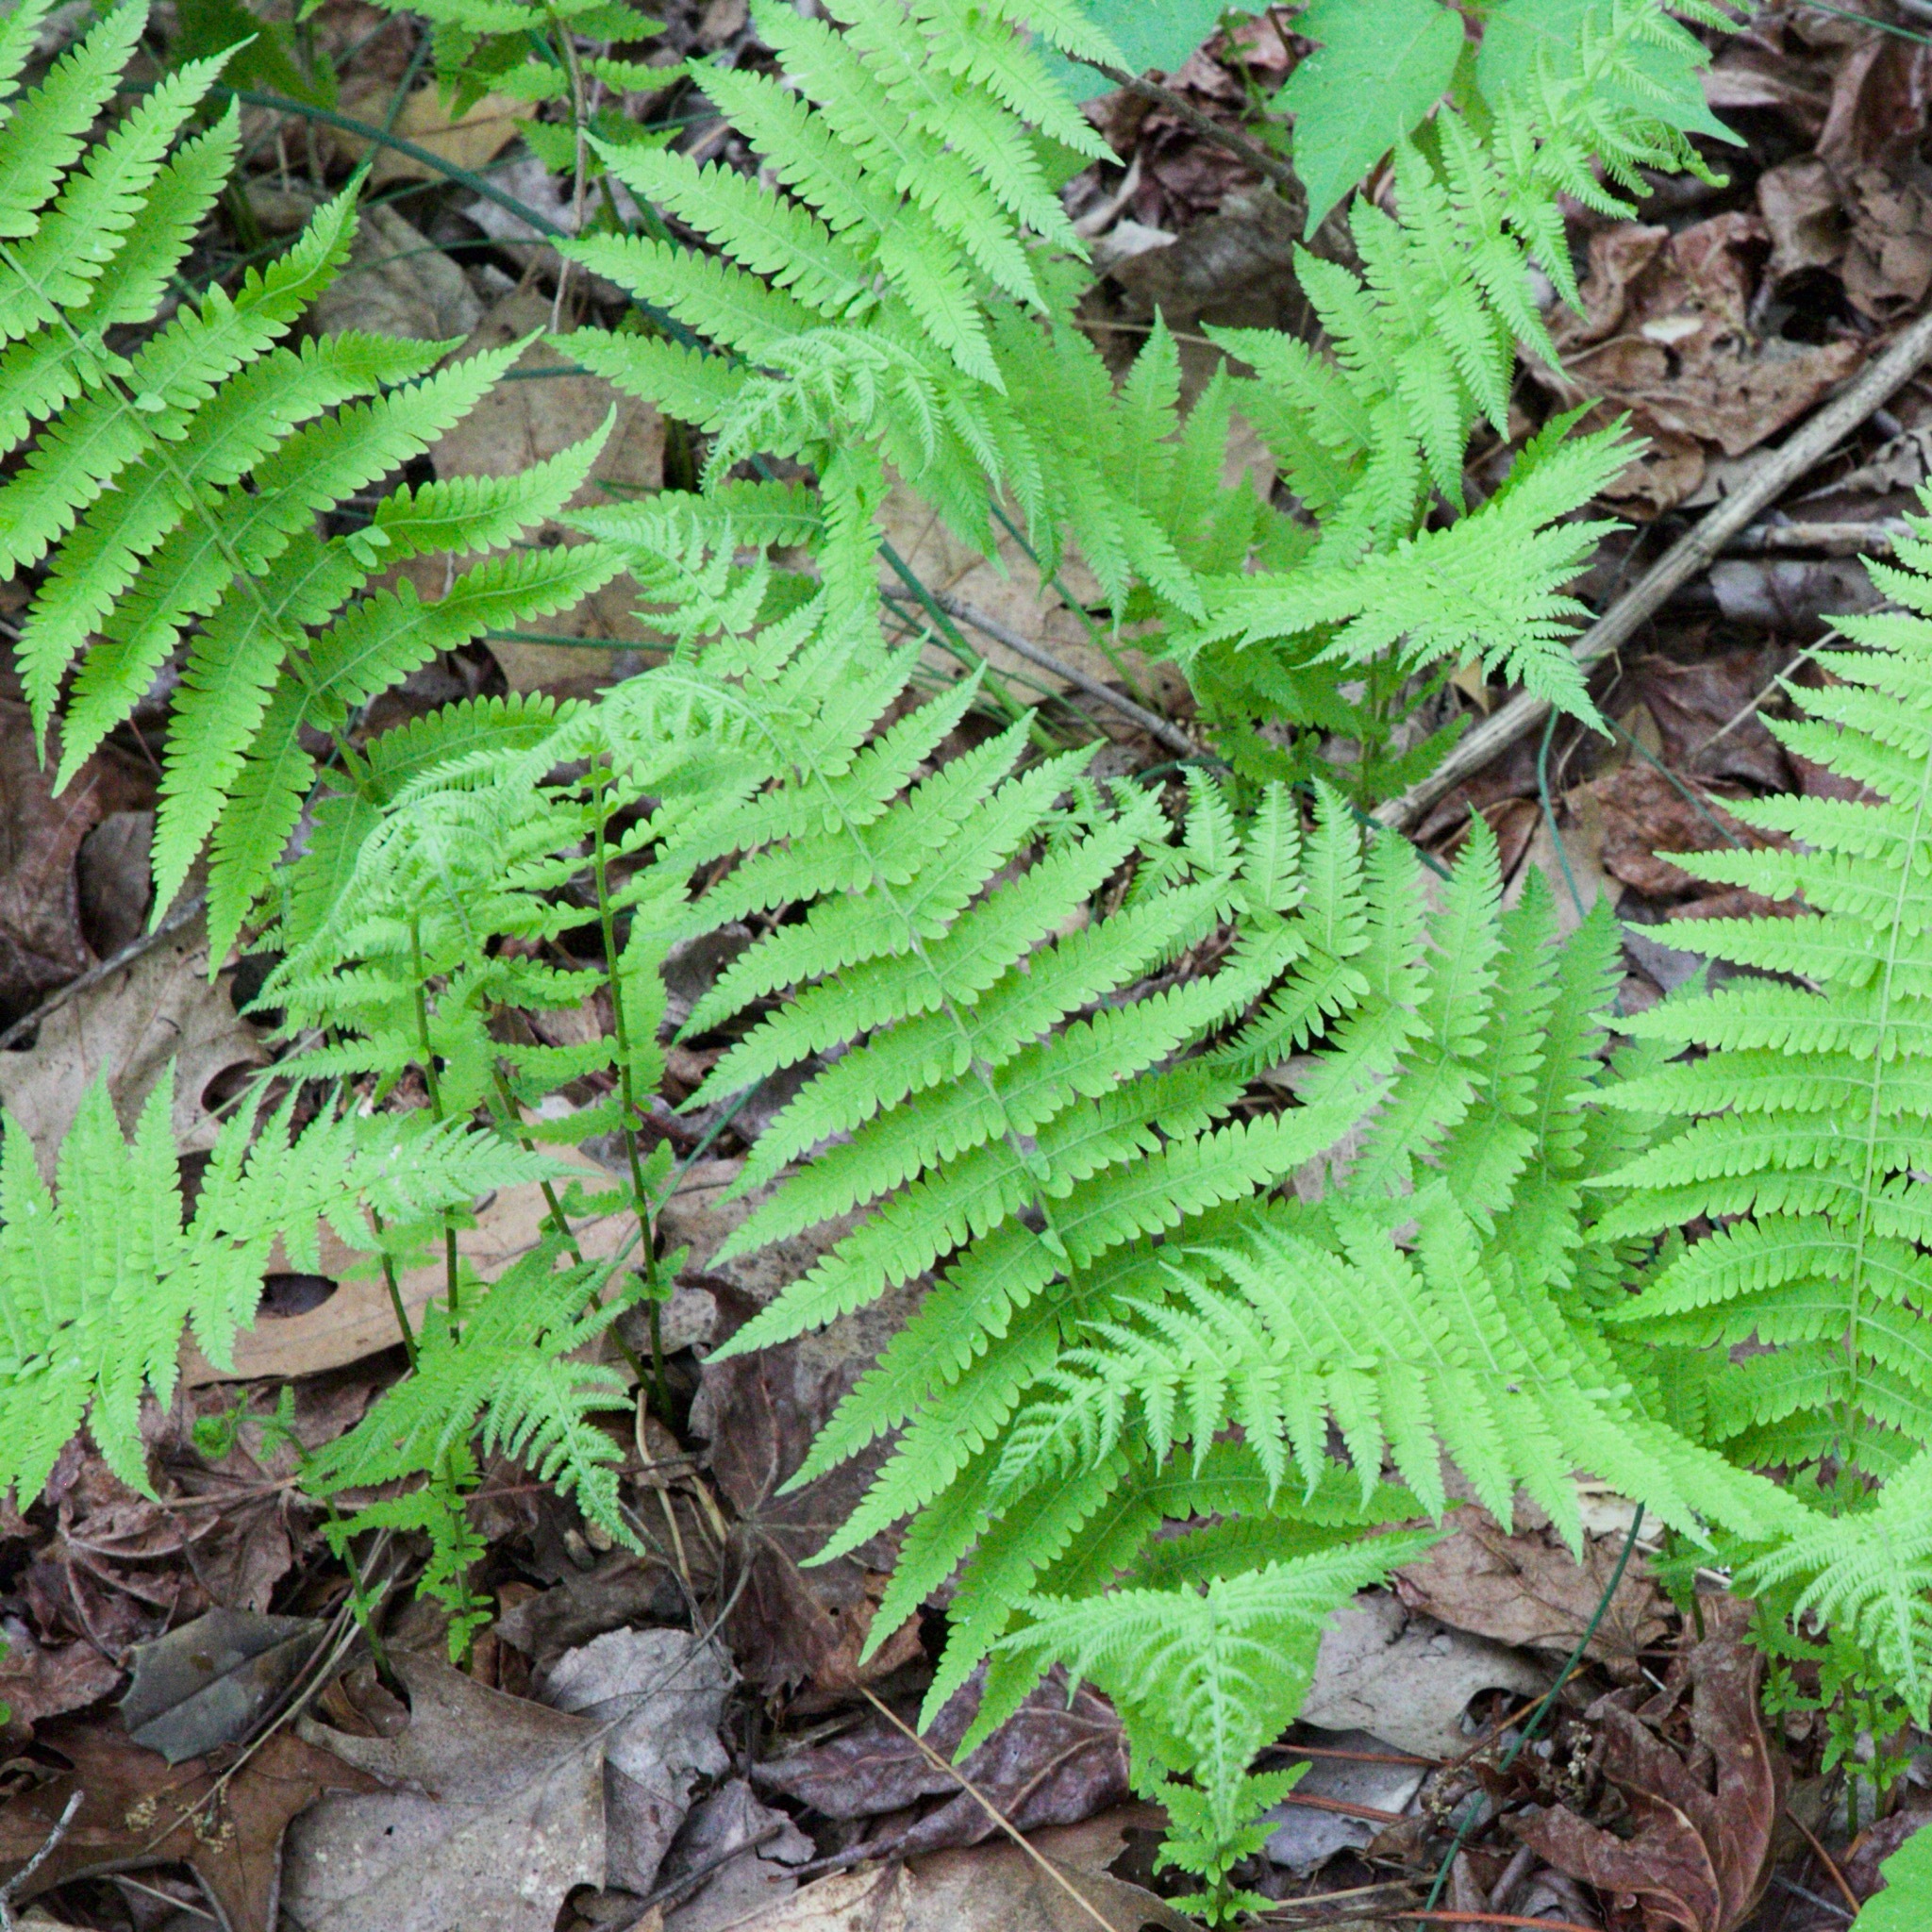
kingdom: Plantae
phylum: Tracheophyta
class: Polypodiopsida
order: Polypodiales
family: Thelypteridaceae
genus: Amauropelta
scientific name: Amauropelta noveboracensis
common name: New york fern
